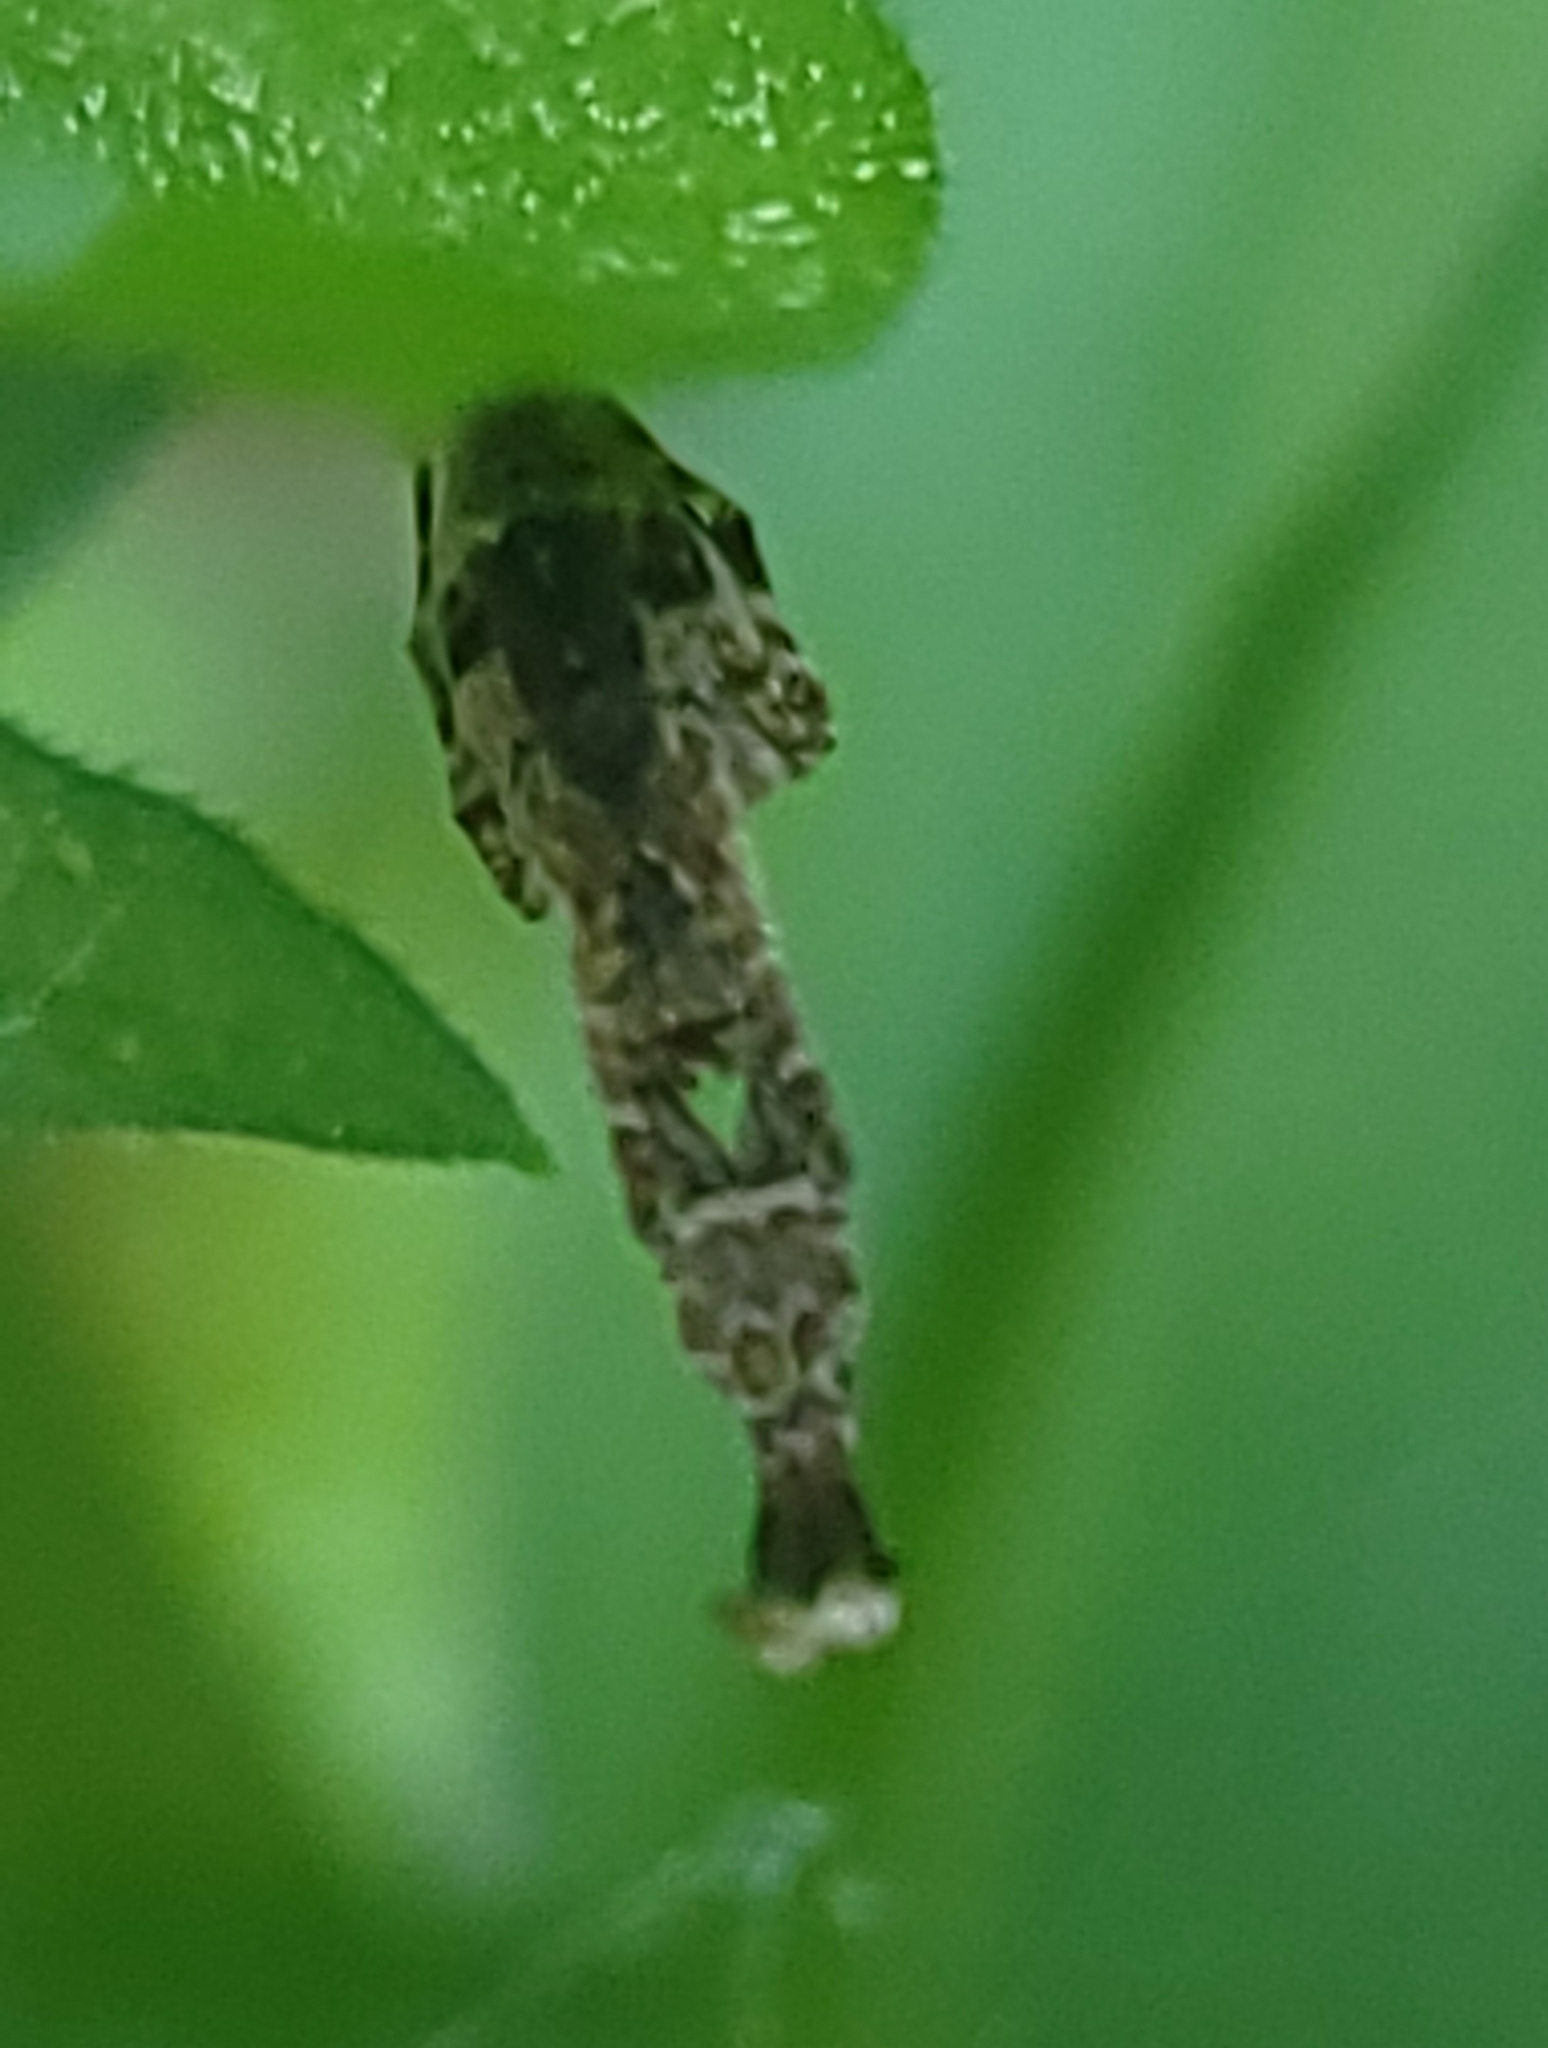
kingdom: Animalia
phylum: Arthropoda
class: Arachnida
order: Araneae
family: Uloboridae
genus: Uloborus
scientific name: Uloborus glomosus
